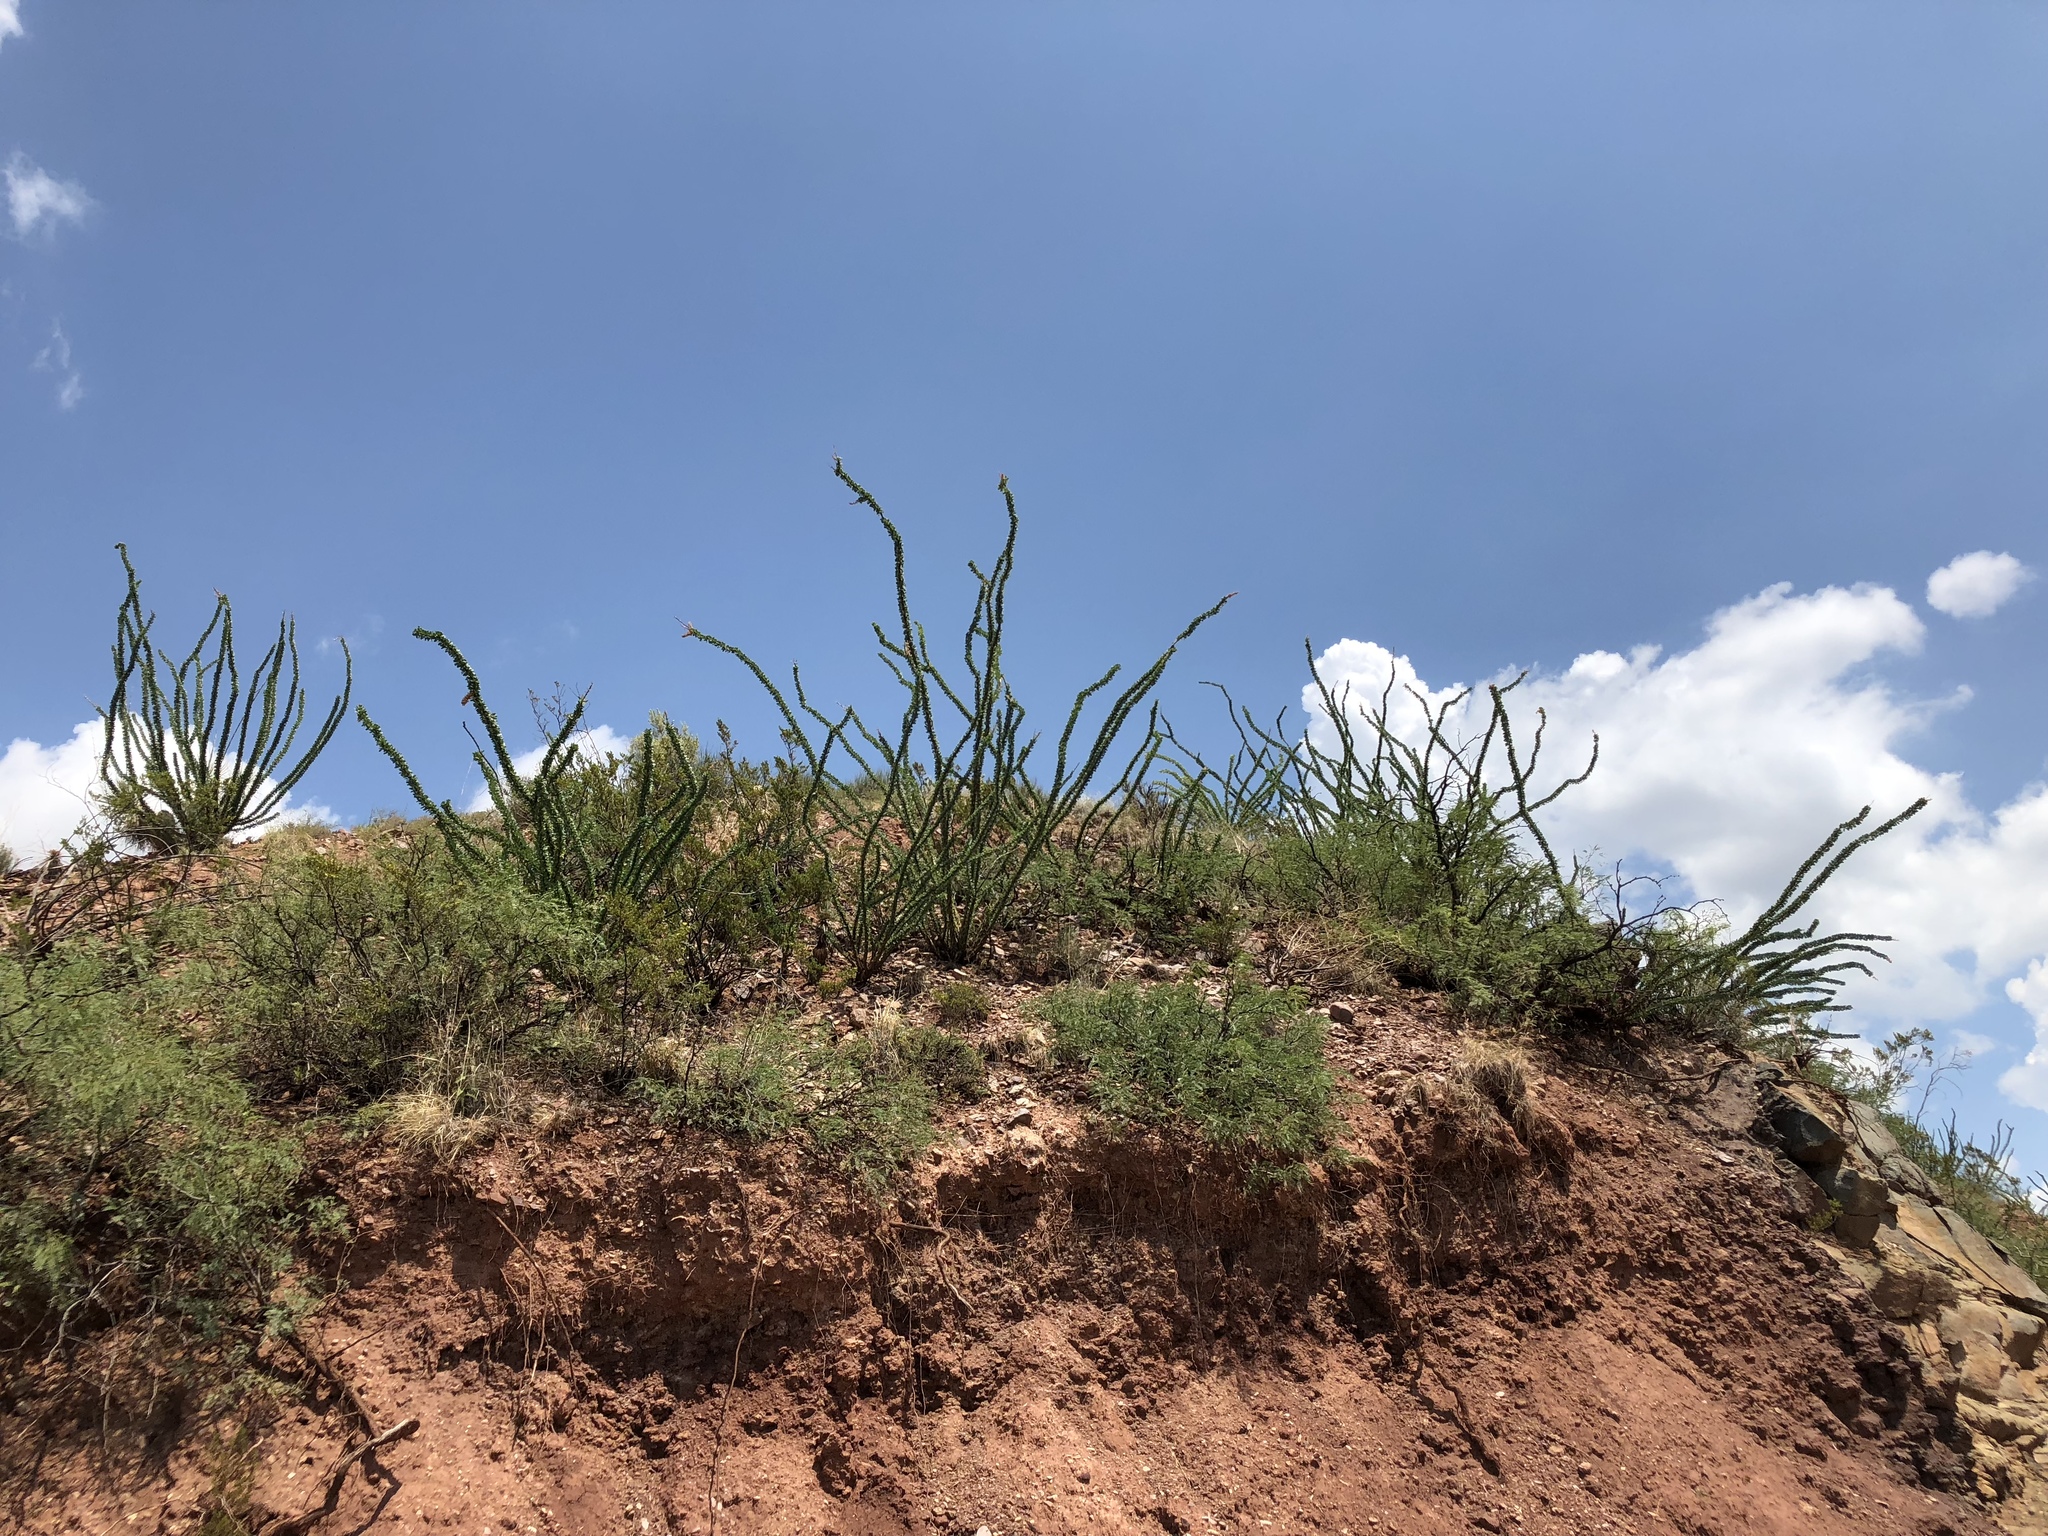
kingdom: Plantae
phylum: Tracheophyta
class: Magnoliopsida
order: Ericales
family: Fouquieriaceae
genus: Fouquieria
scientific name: Fouquieria splendens
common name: Vine-cactus
